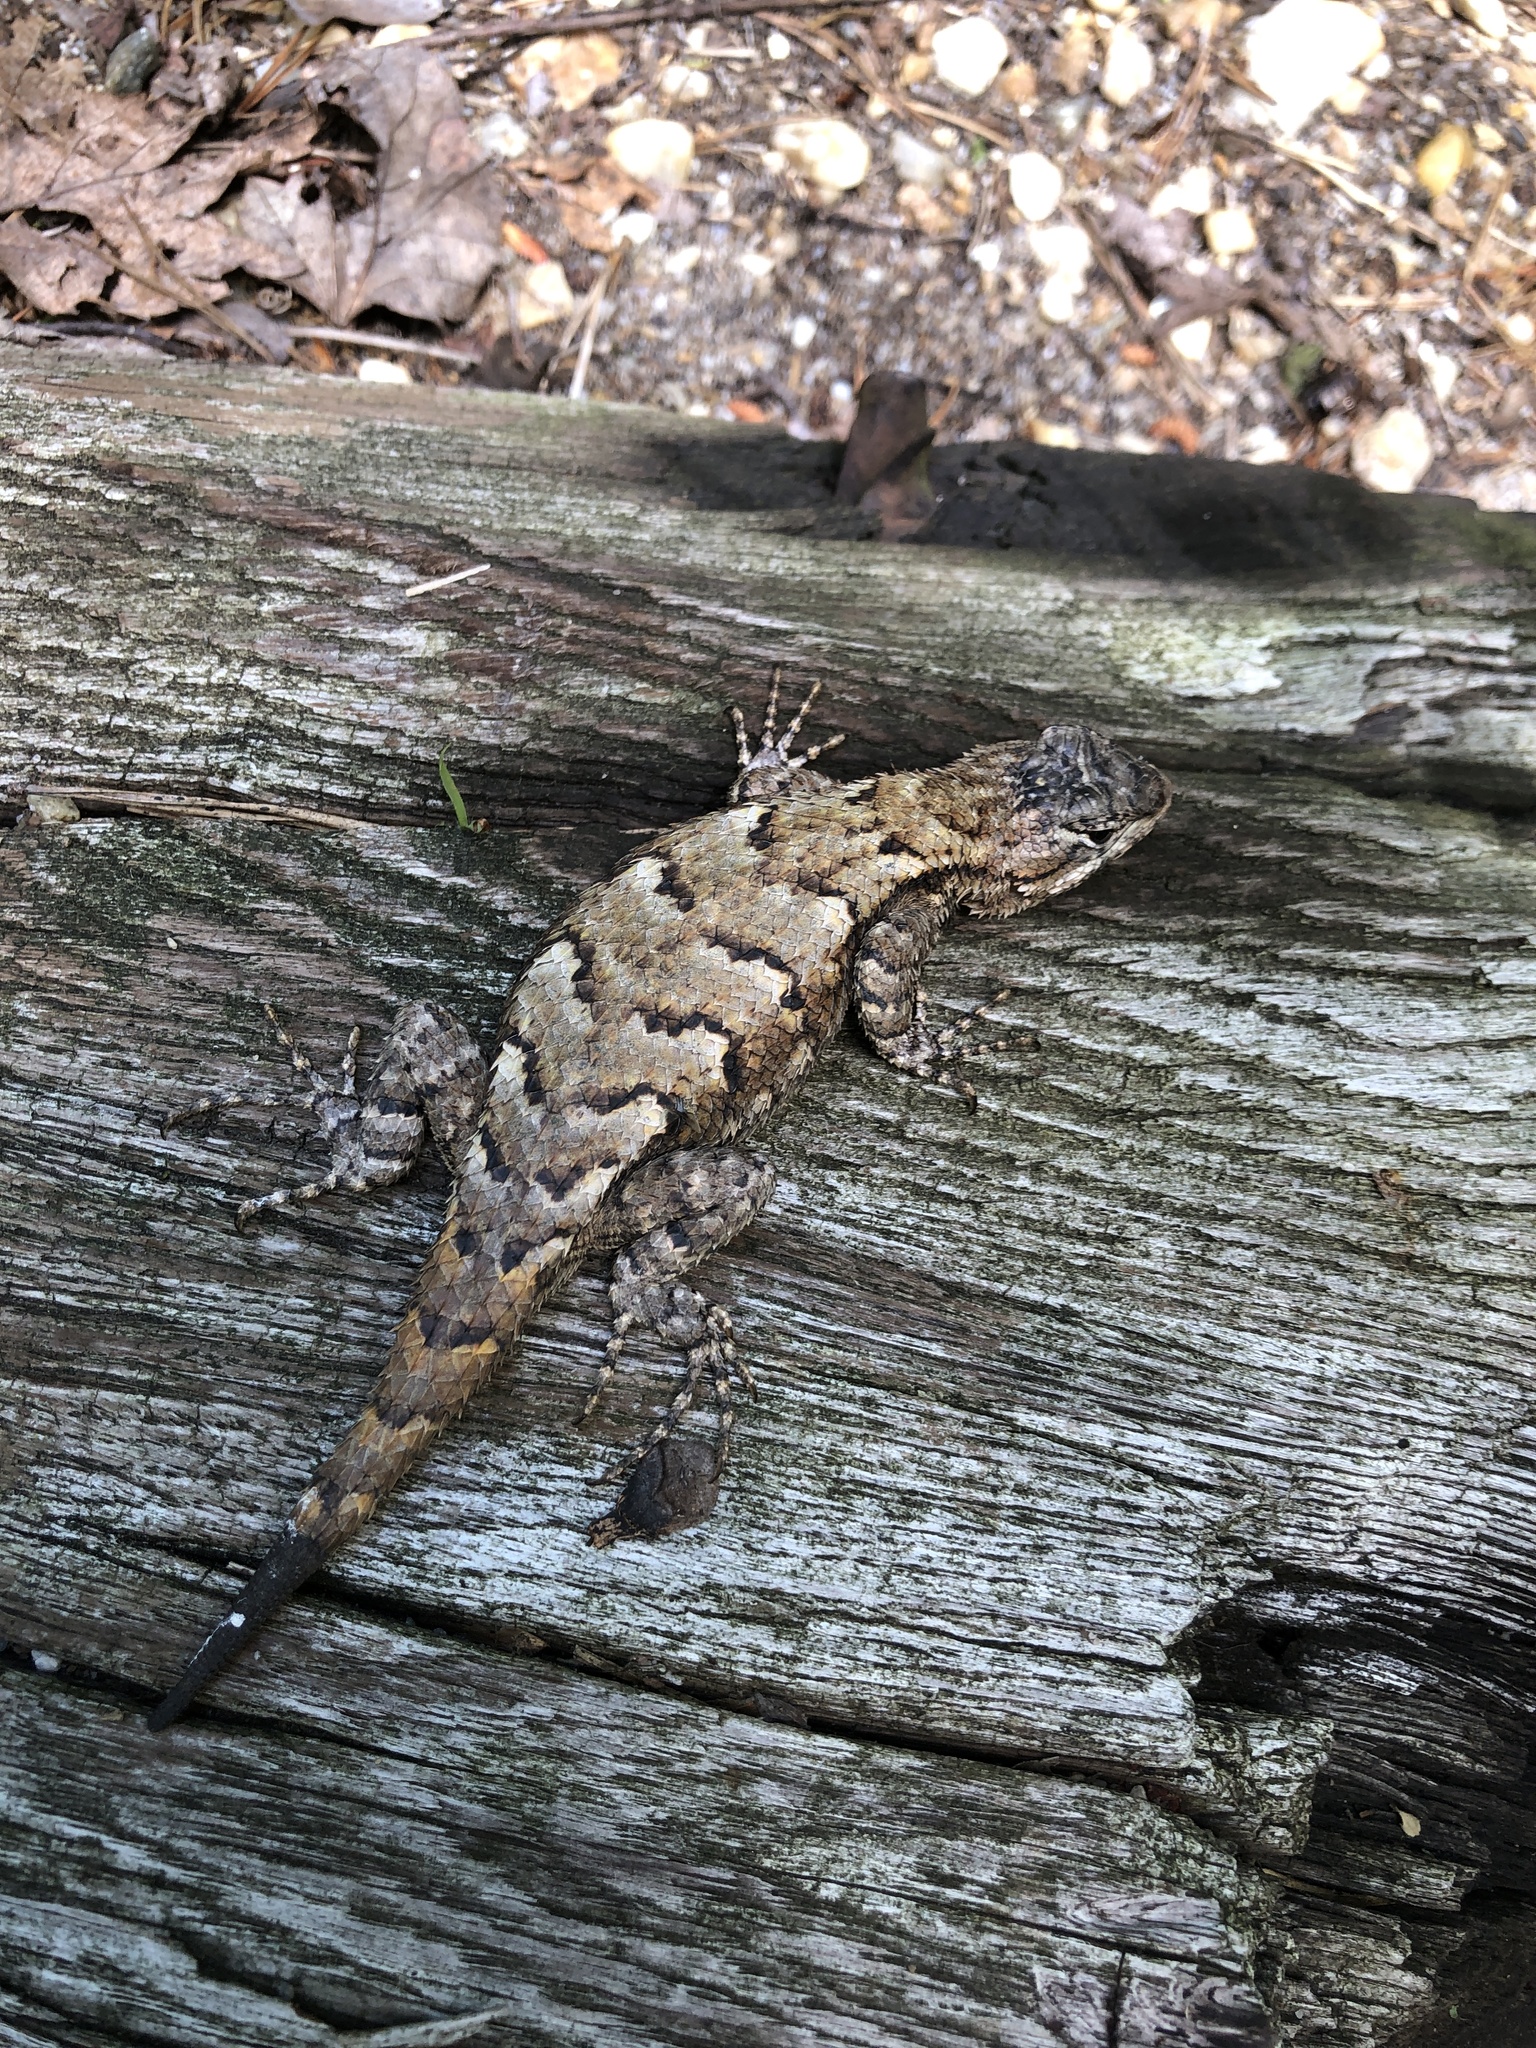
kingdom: Animalia
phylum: Chordata
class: Squamata
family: Phrynosomatidae
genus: Sceloporus
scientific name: Sceloporus undulatus
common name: Eastern fence lizard
